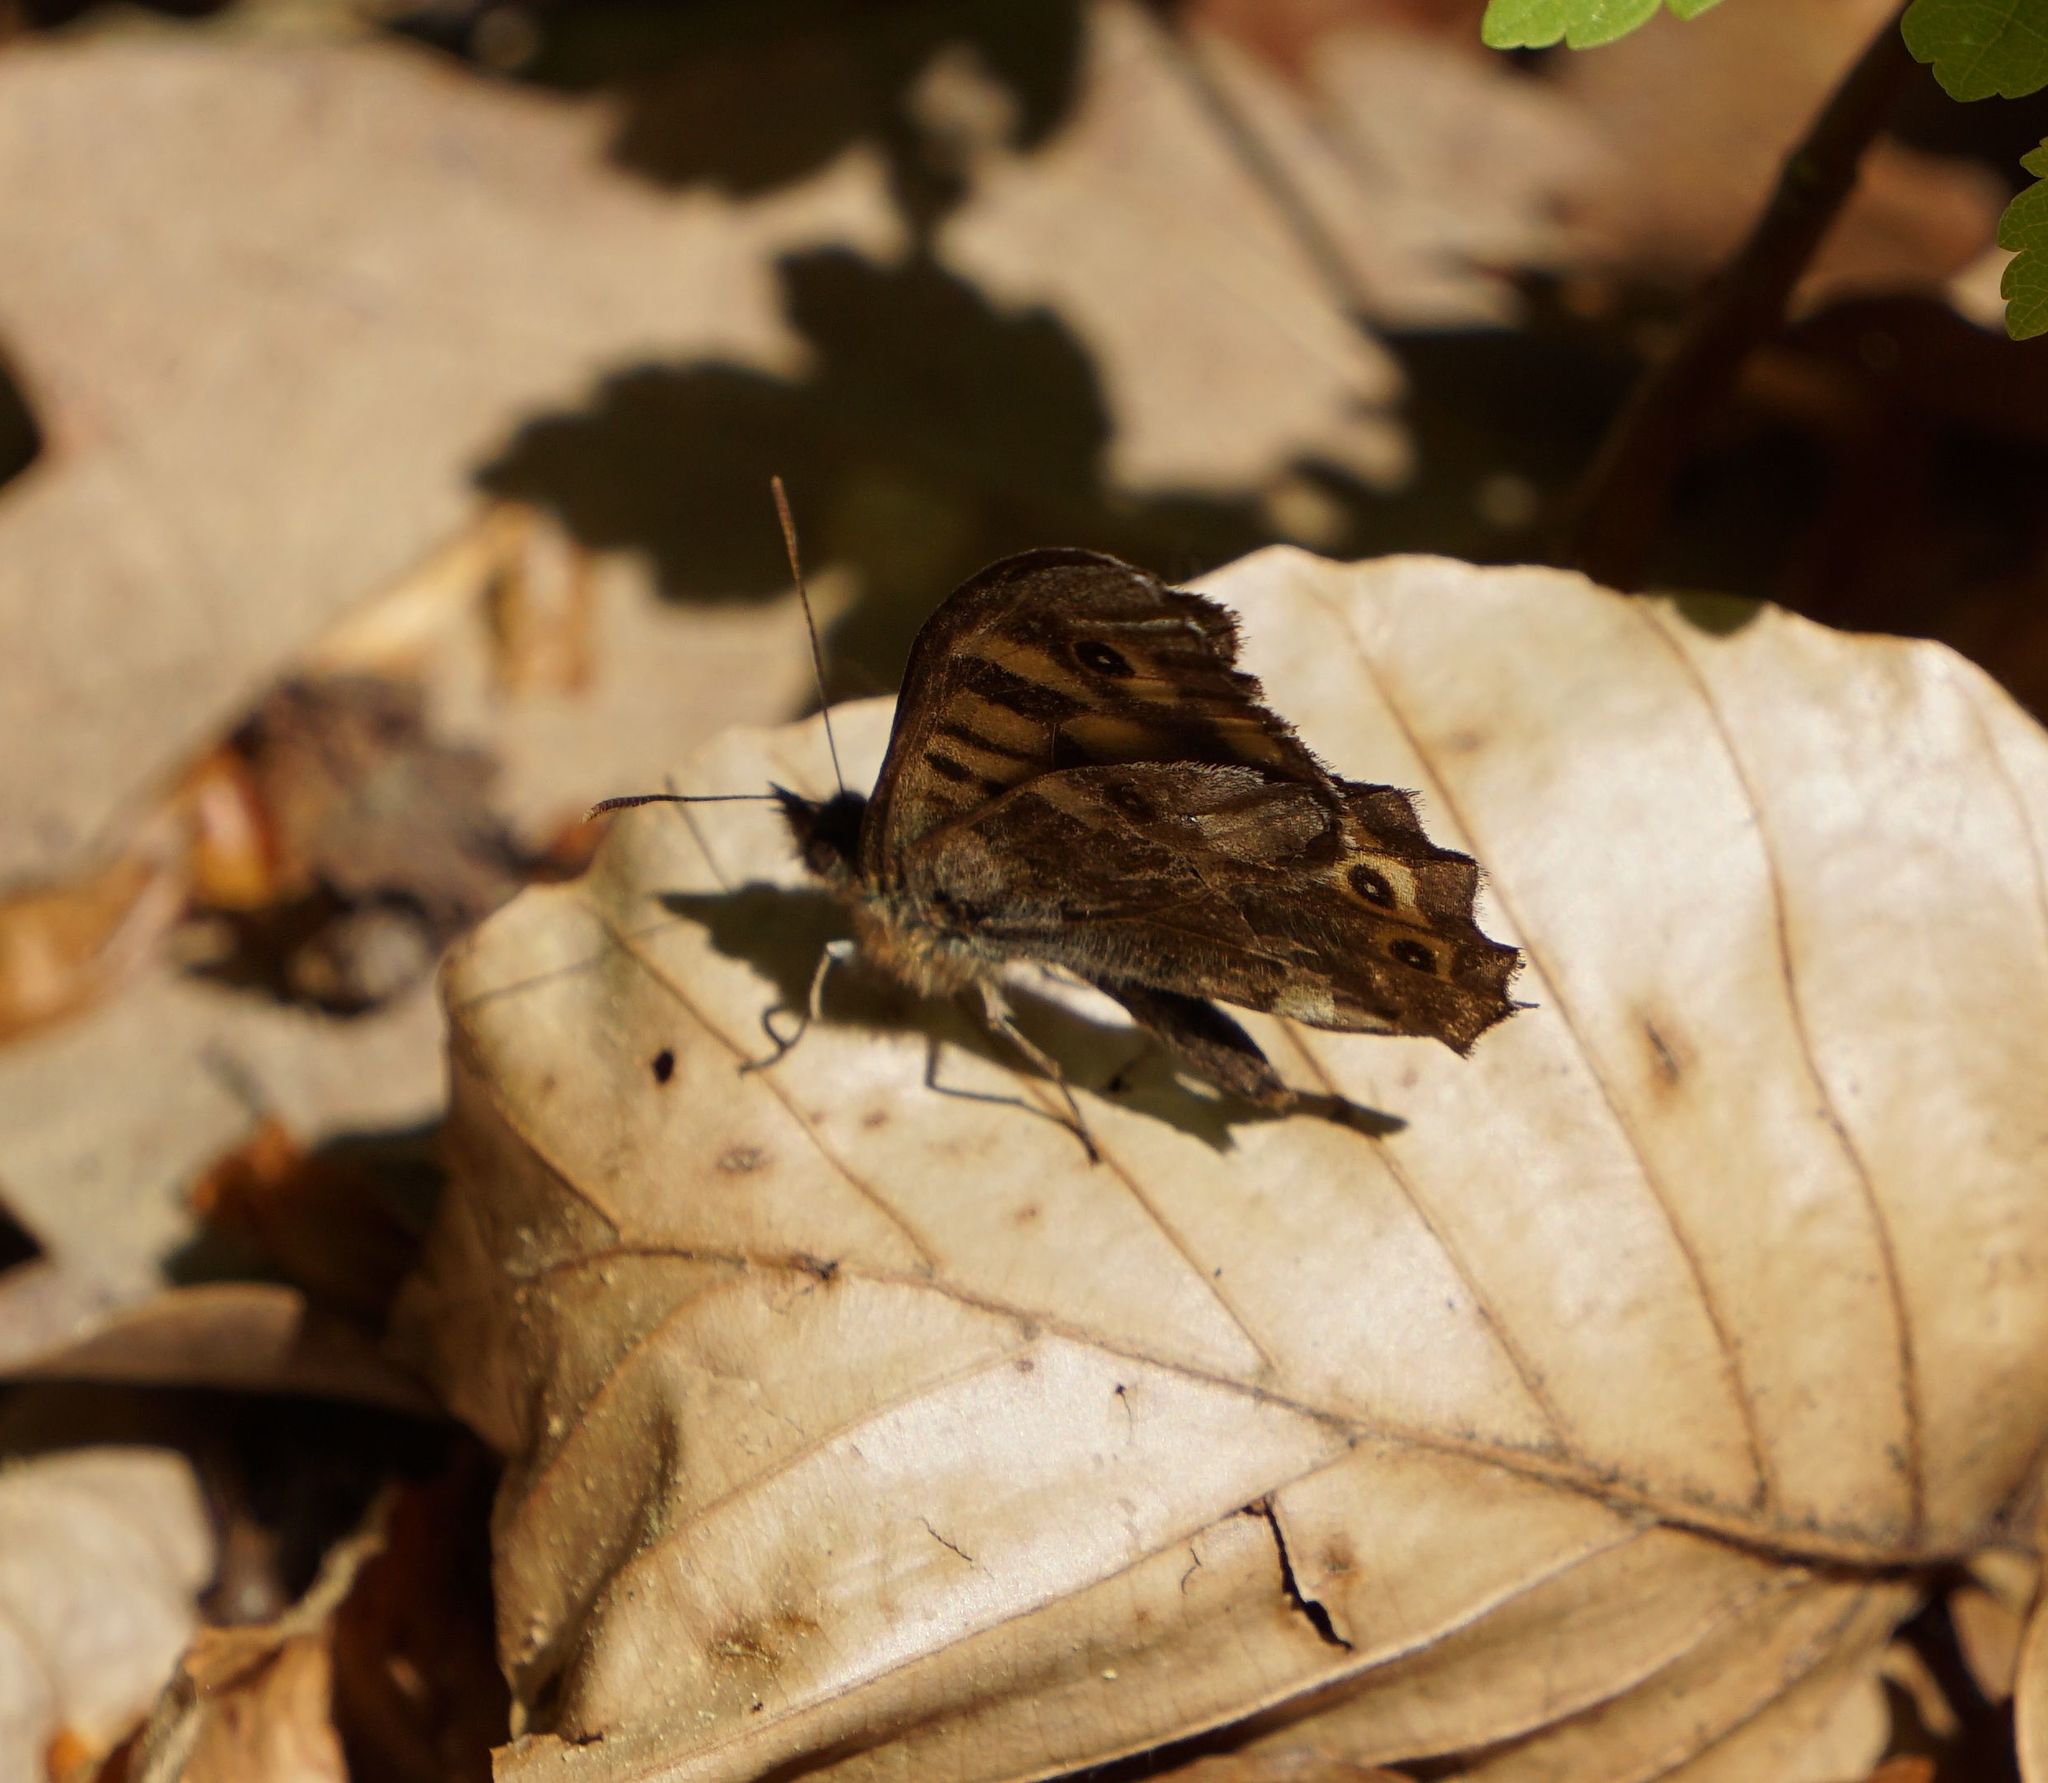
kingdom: Animalia
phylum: Arthropoda
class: Insecta
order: Lepidoptera
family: Nymphalidae
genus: Pararge
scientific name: Pararge aegeria
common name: Speckled wood
